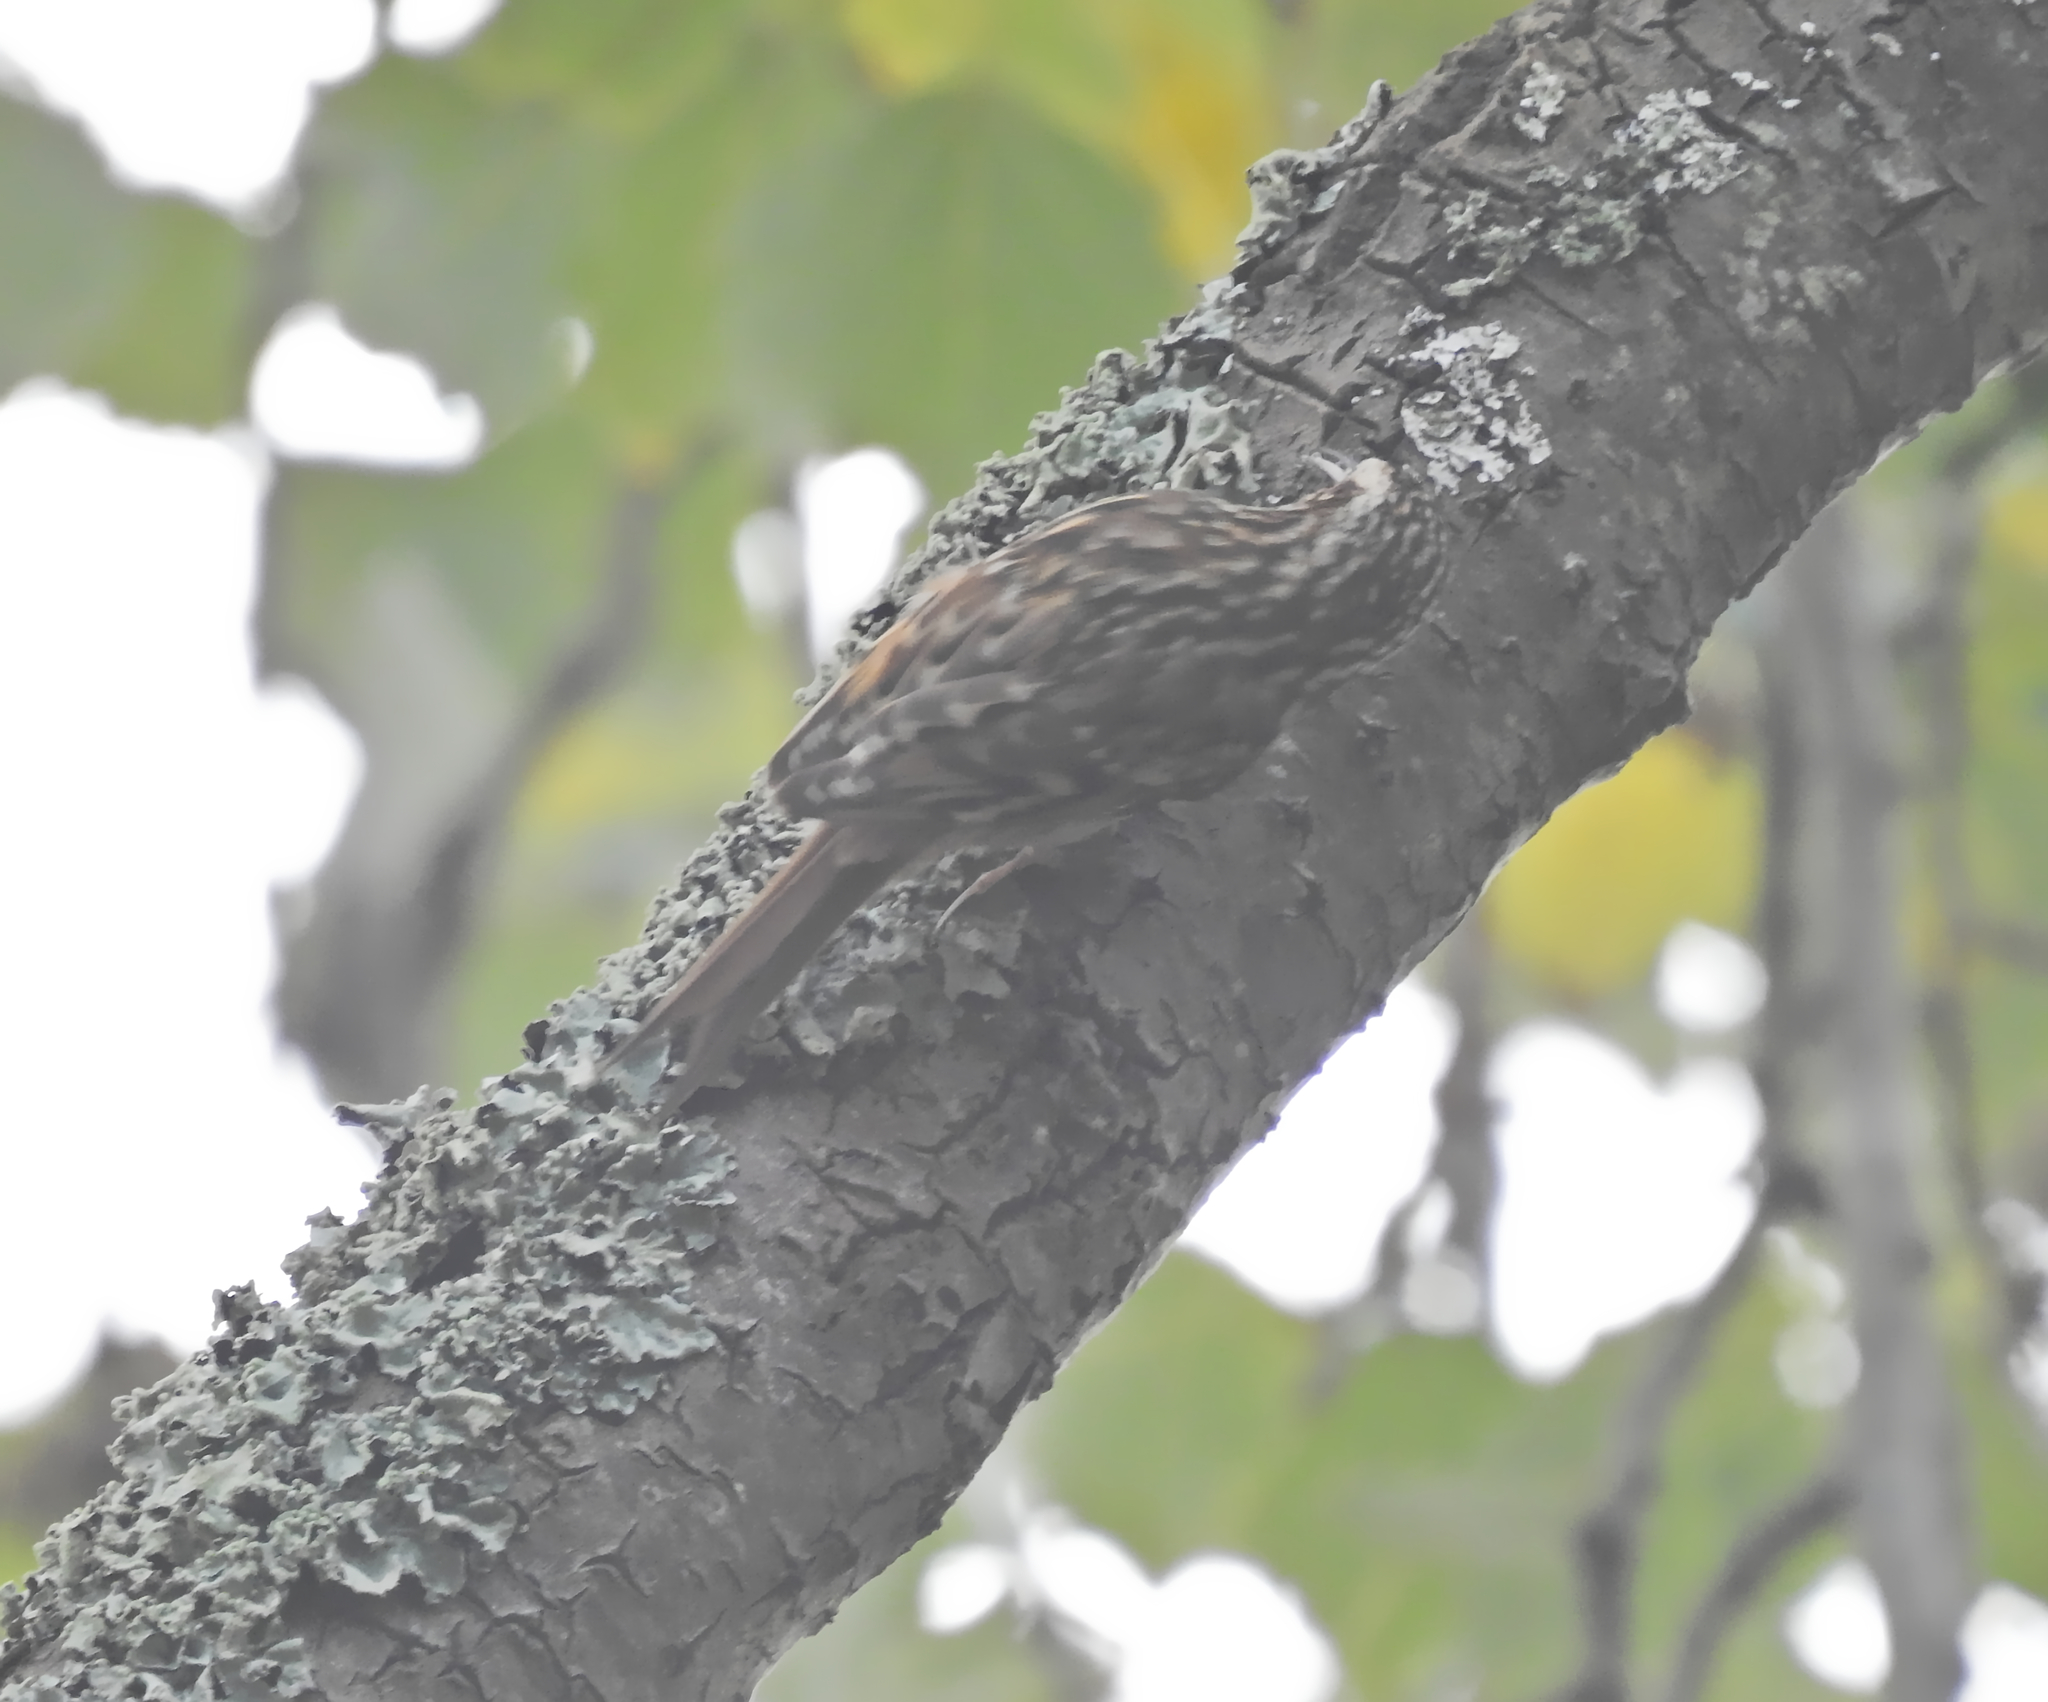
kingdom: Animalia
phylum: Chordata
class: Aves
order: Passeriformes
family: Certhiidae
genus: Certhia
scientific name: Certhia brachydactyla
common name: Short-toed treecreeper
